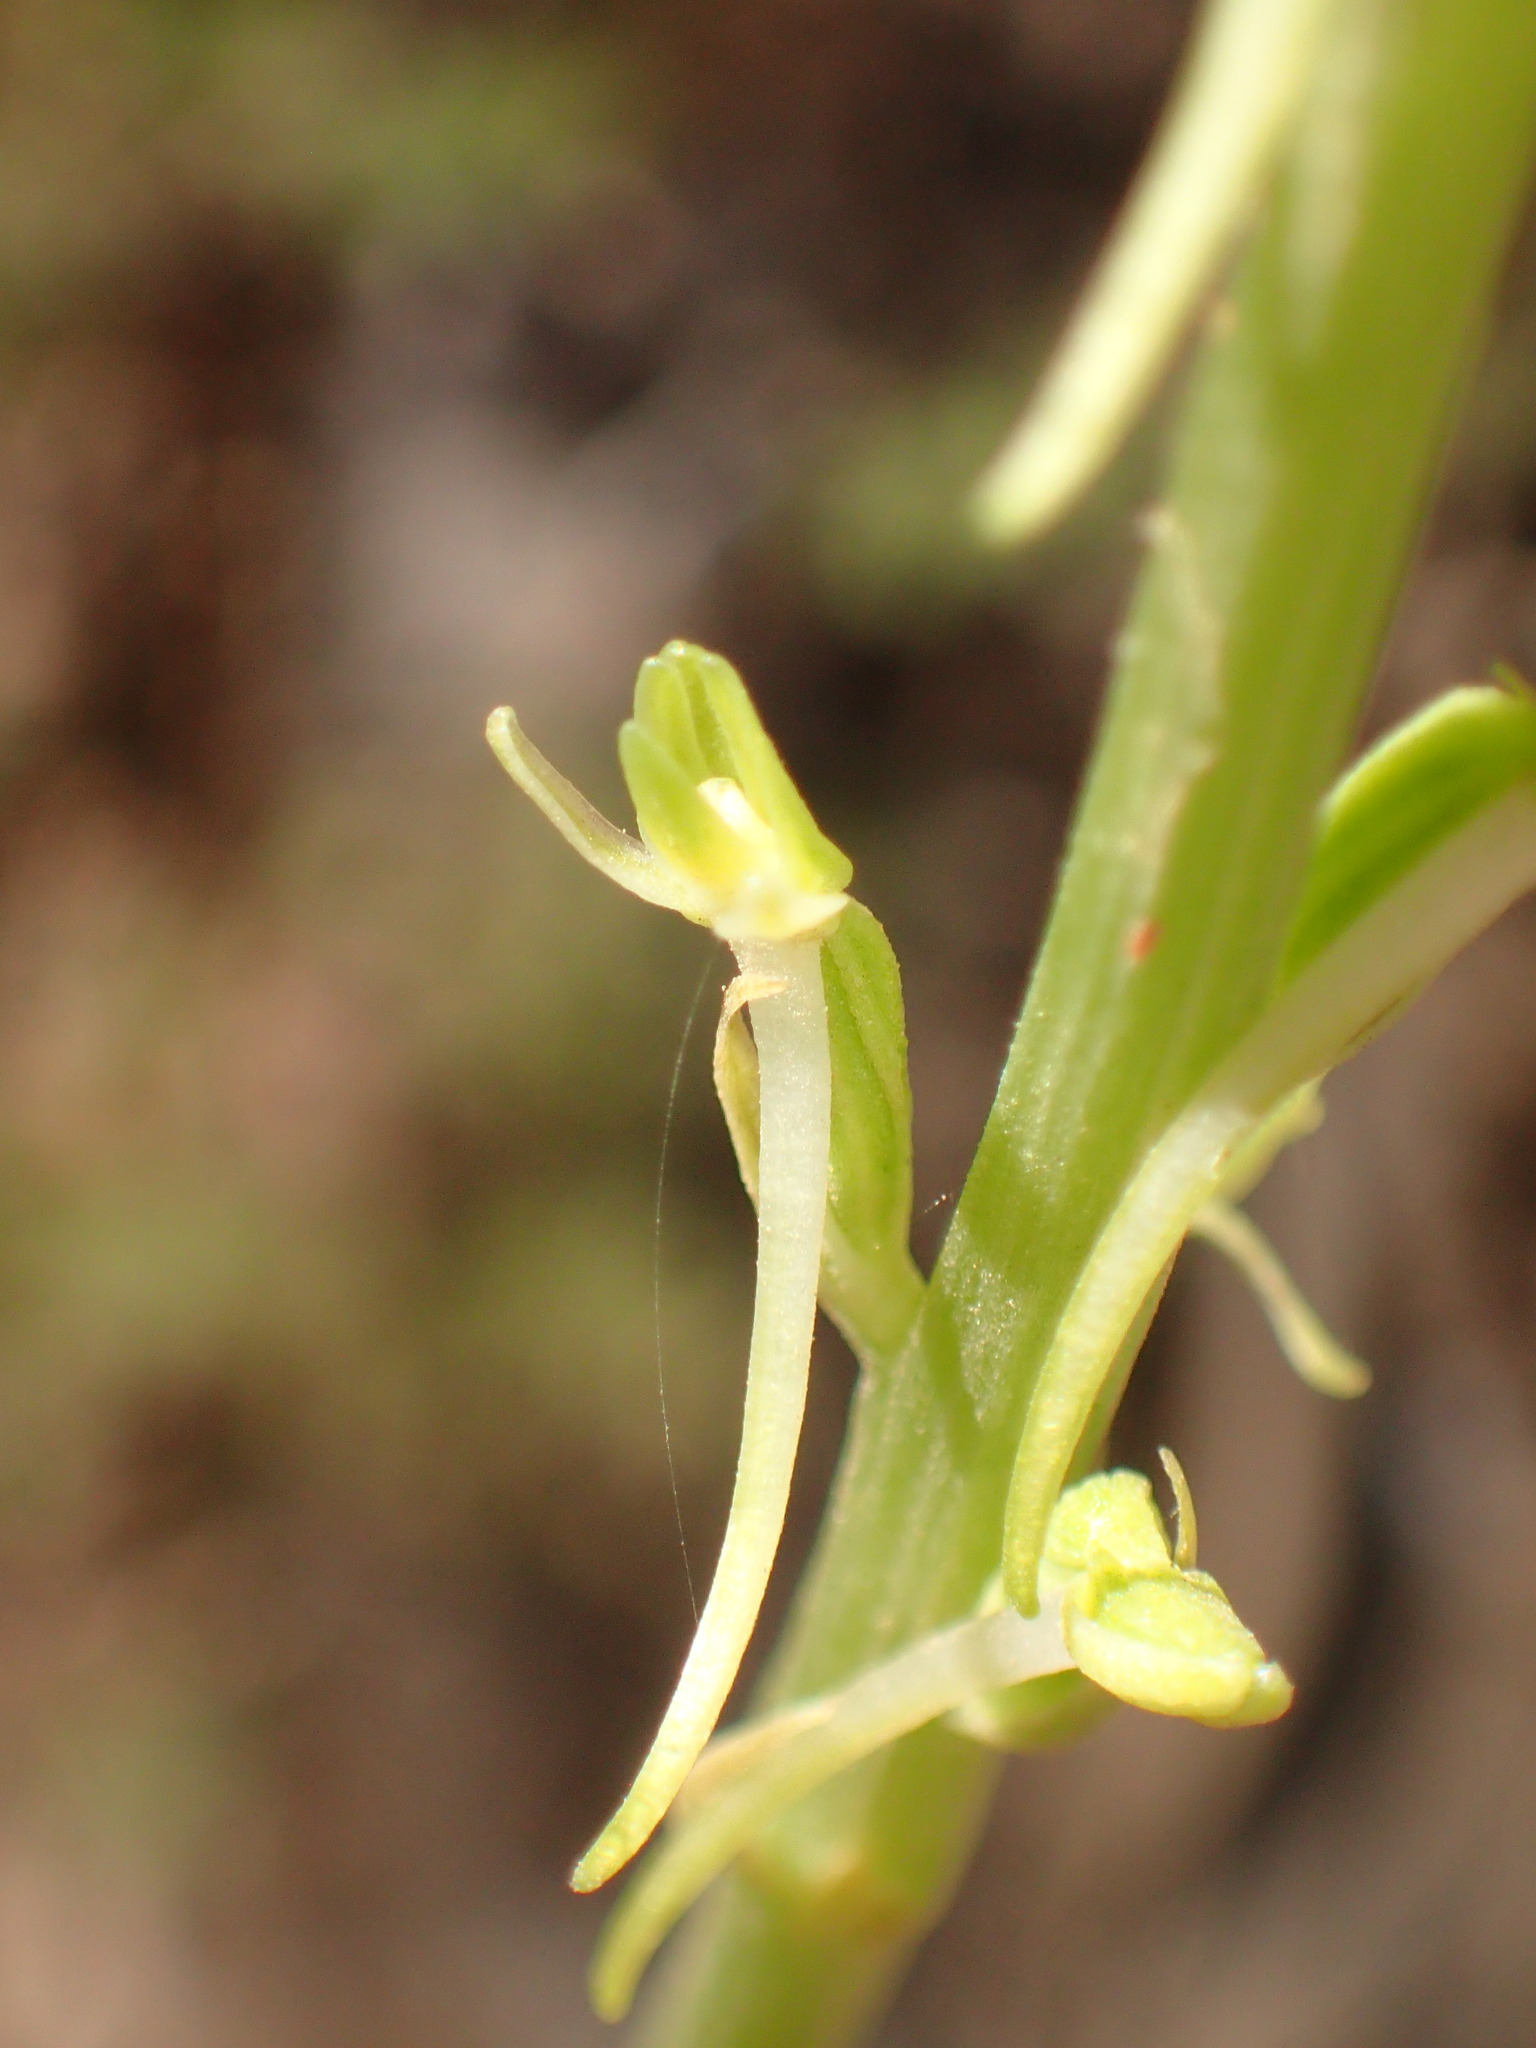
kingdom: Plantae
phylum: Tracheophyta
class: Liliopsida
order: Asparagales
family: Orchidaceae
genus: Platanthera
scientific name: Platanthera elongata
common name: Dense-flowered rein orchid
